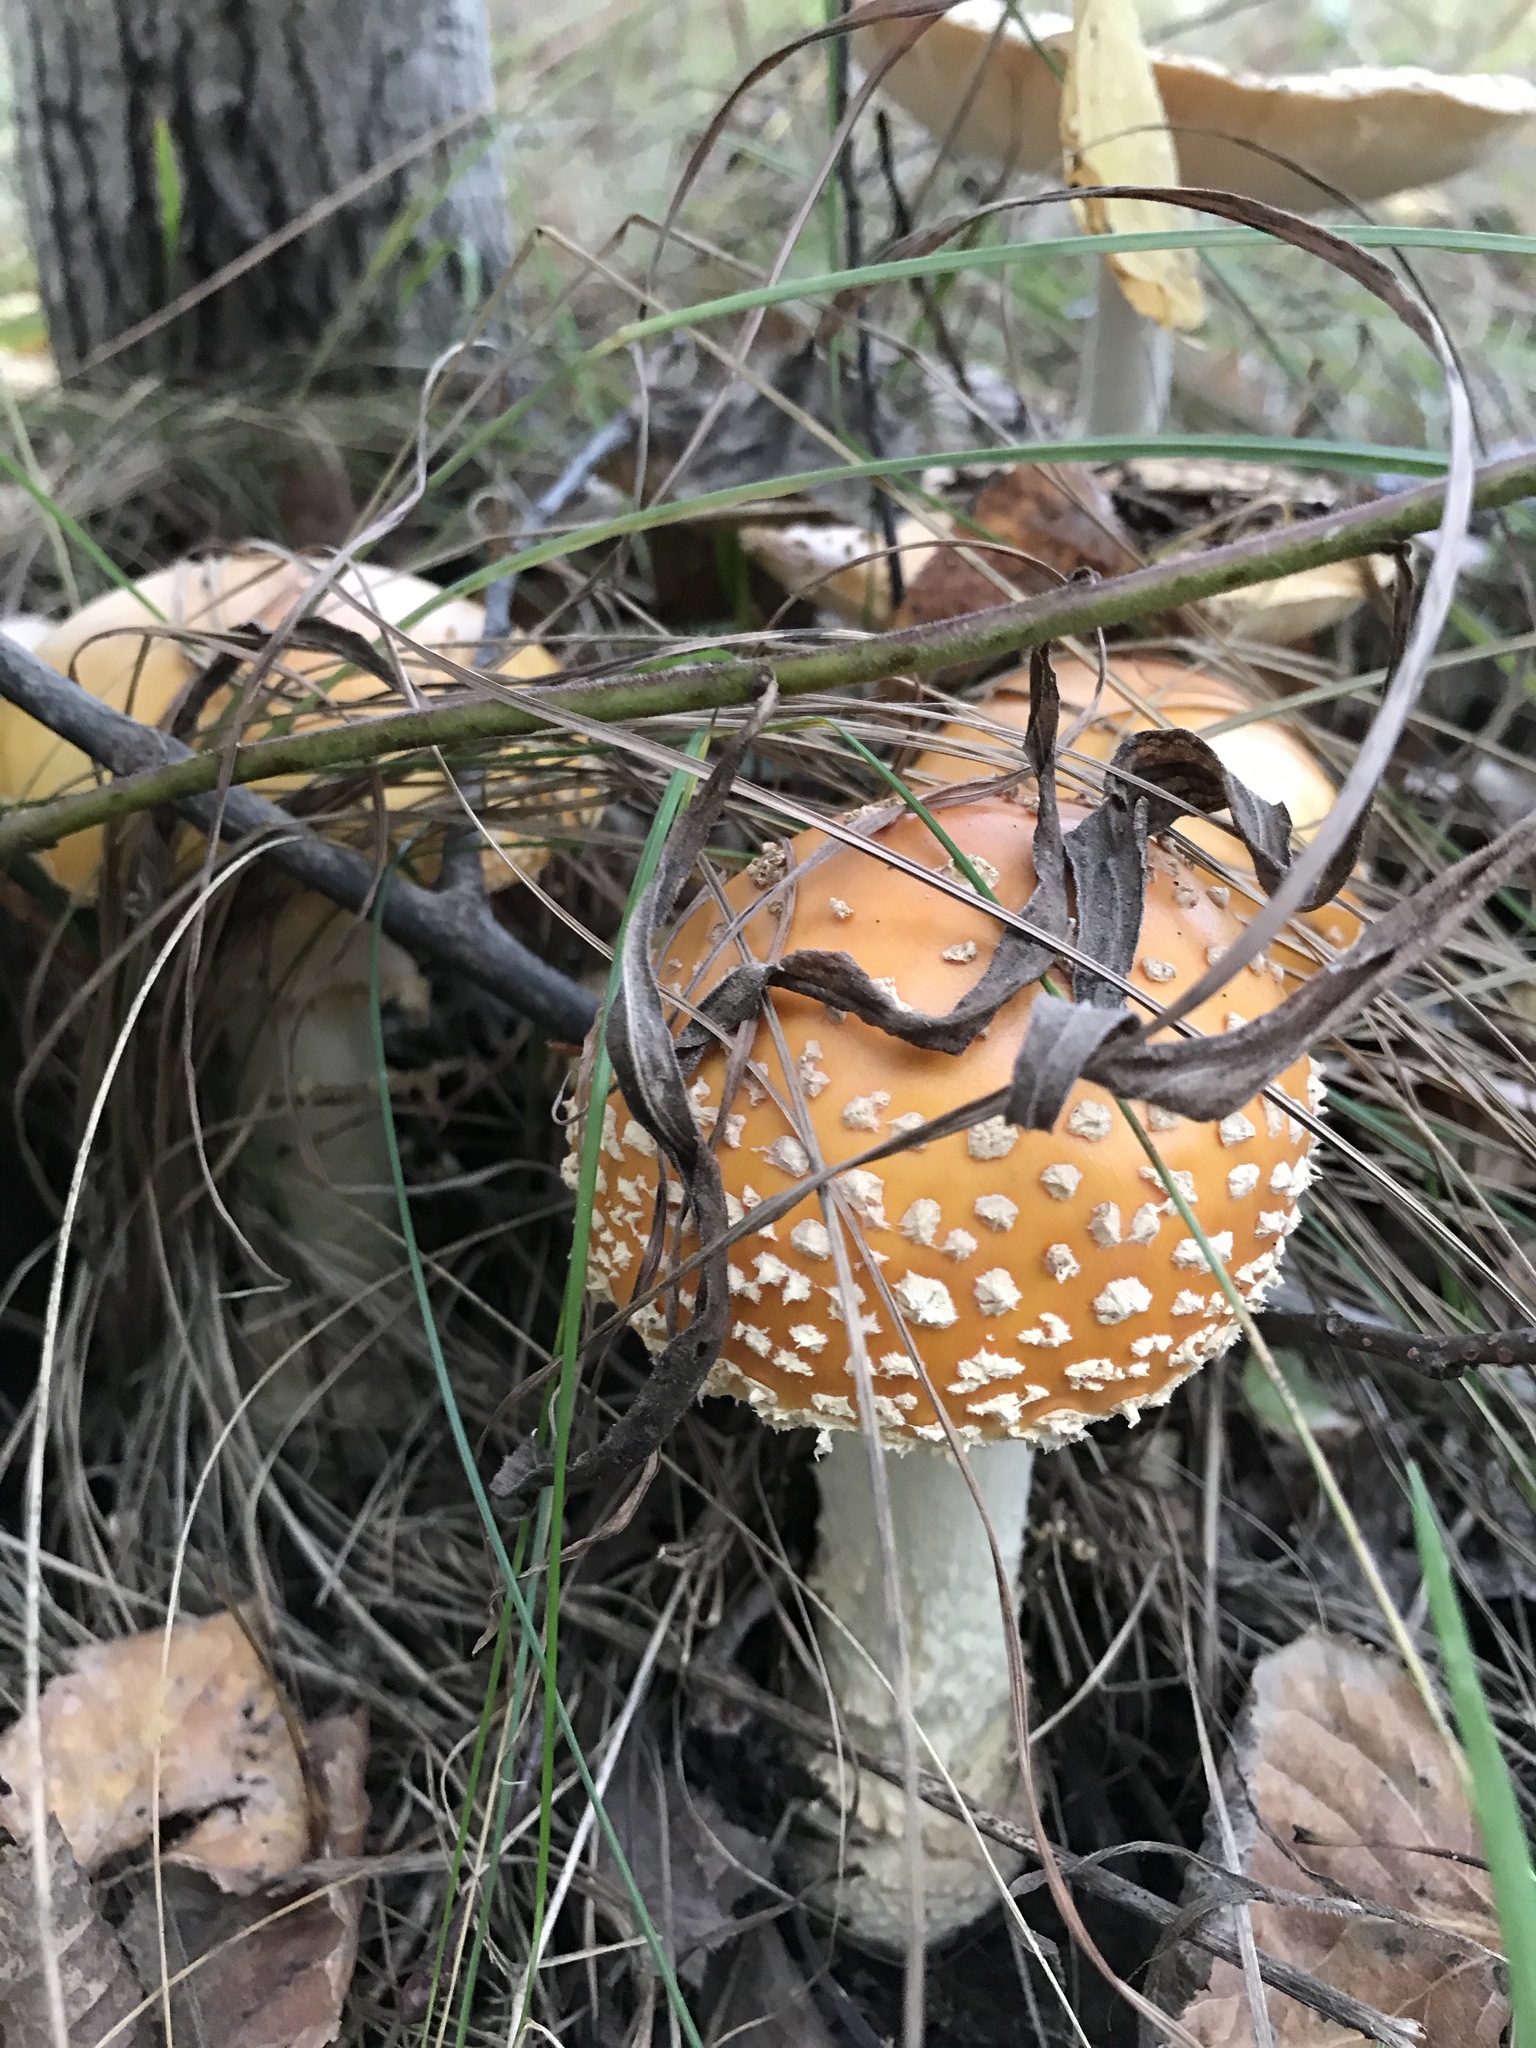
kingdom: Fungi
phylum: Basidiomycota
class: Agaricomycetes
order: Agaricales
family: Amanitaceae
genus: Amanita
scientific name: Amanita muscaria
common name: Fly agaric
